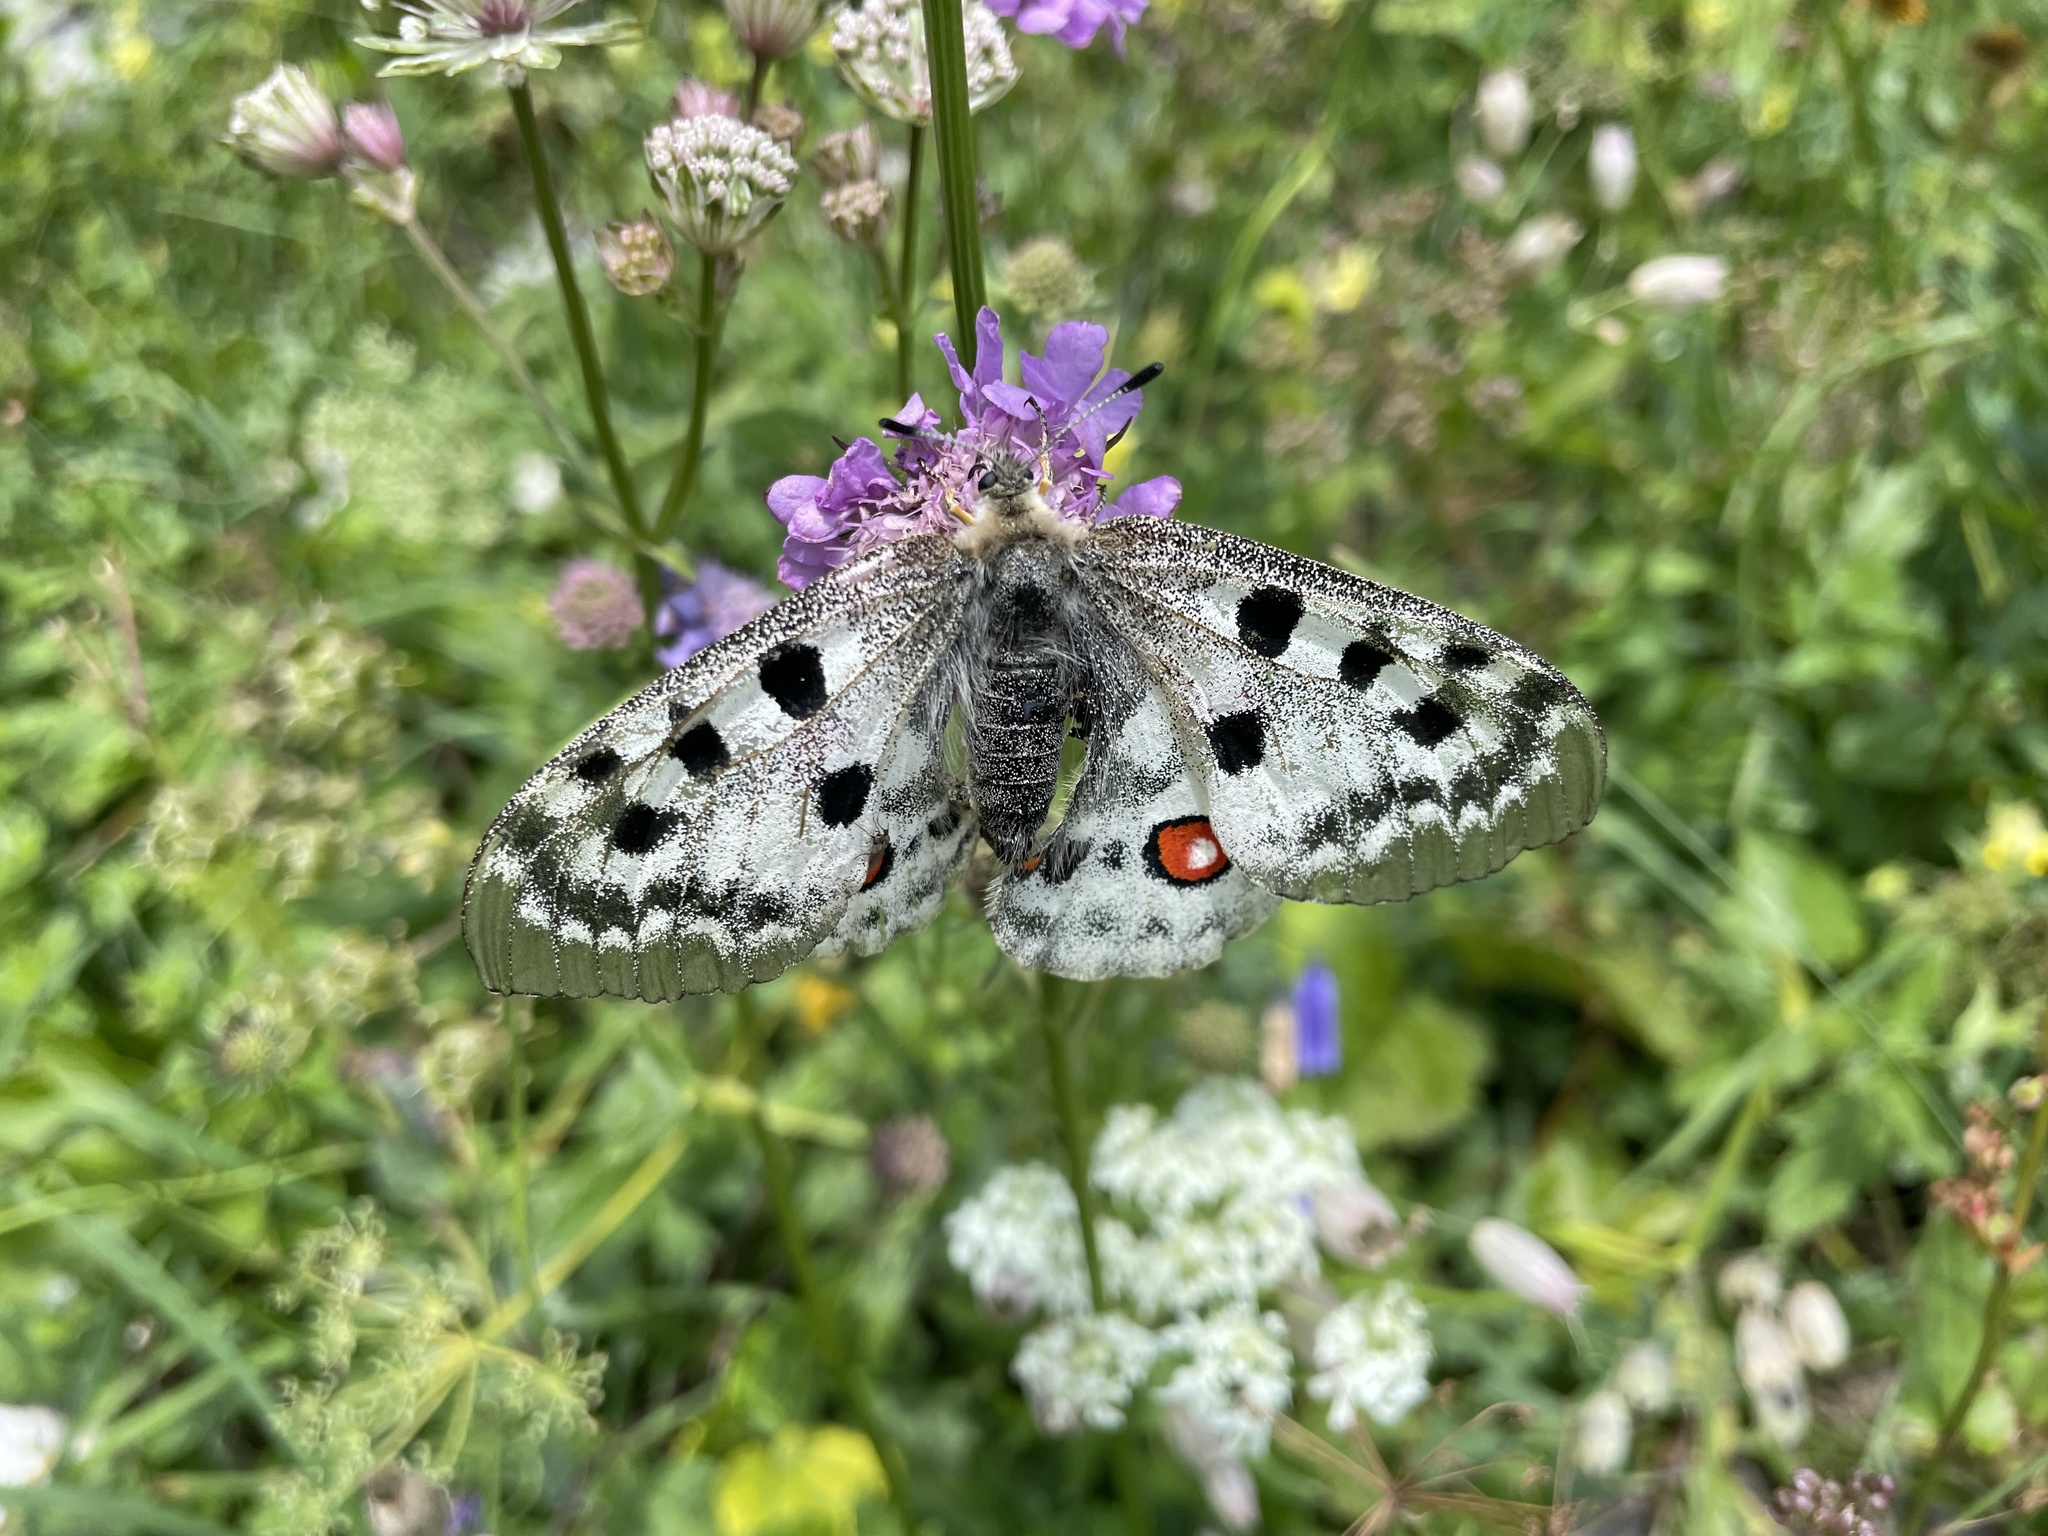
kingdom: Animalia
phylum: Arthropoda
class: Insecta
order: Lepidoptera
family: Papilionidae
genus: Parnassius
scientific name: Parnassius apollo
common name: Apollo
